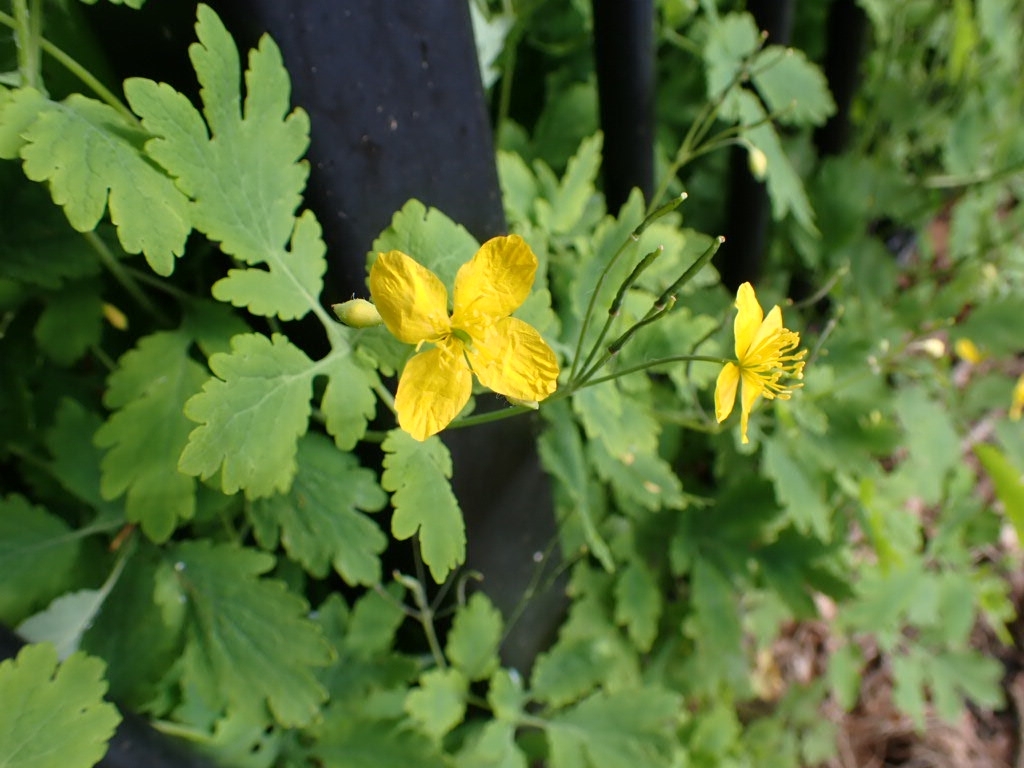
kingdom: Plantae
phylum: Tracheophyta
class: Magnoliopsida
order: Ranunculales
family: Papaveraceae
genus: Chelidonium
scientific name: Chelidonium majus
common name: Greater celandine
